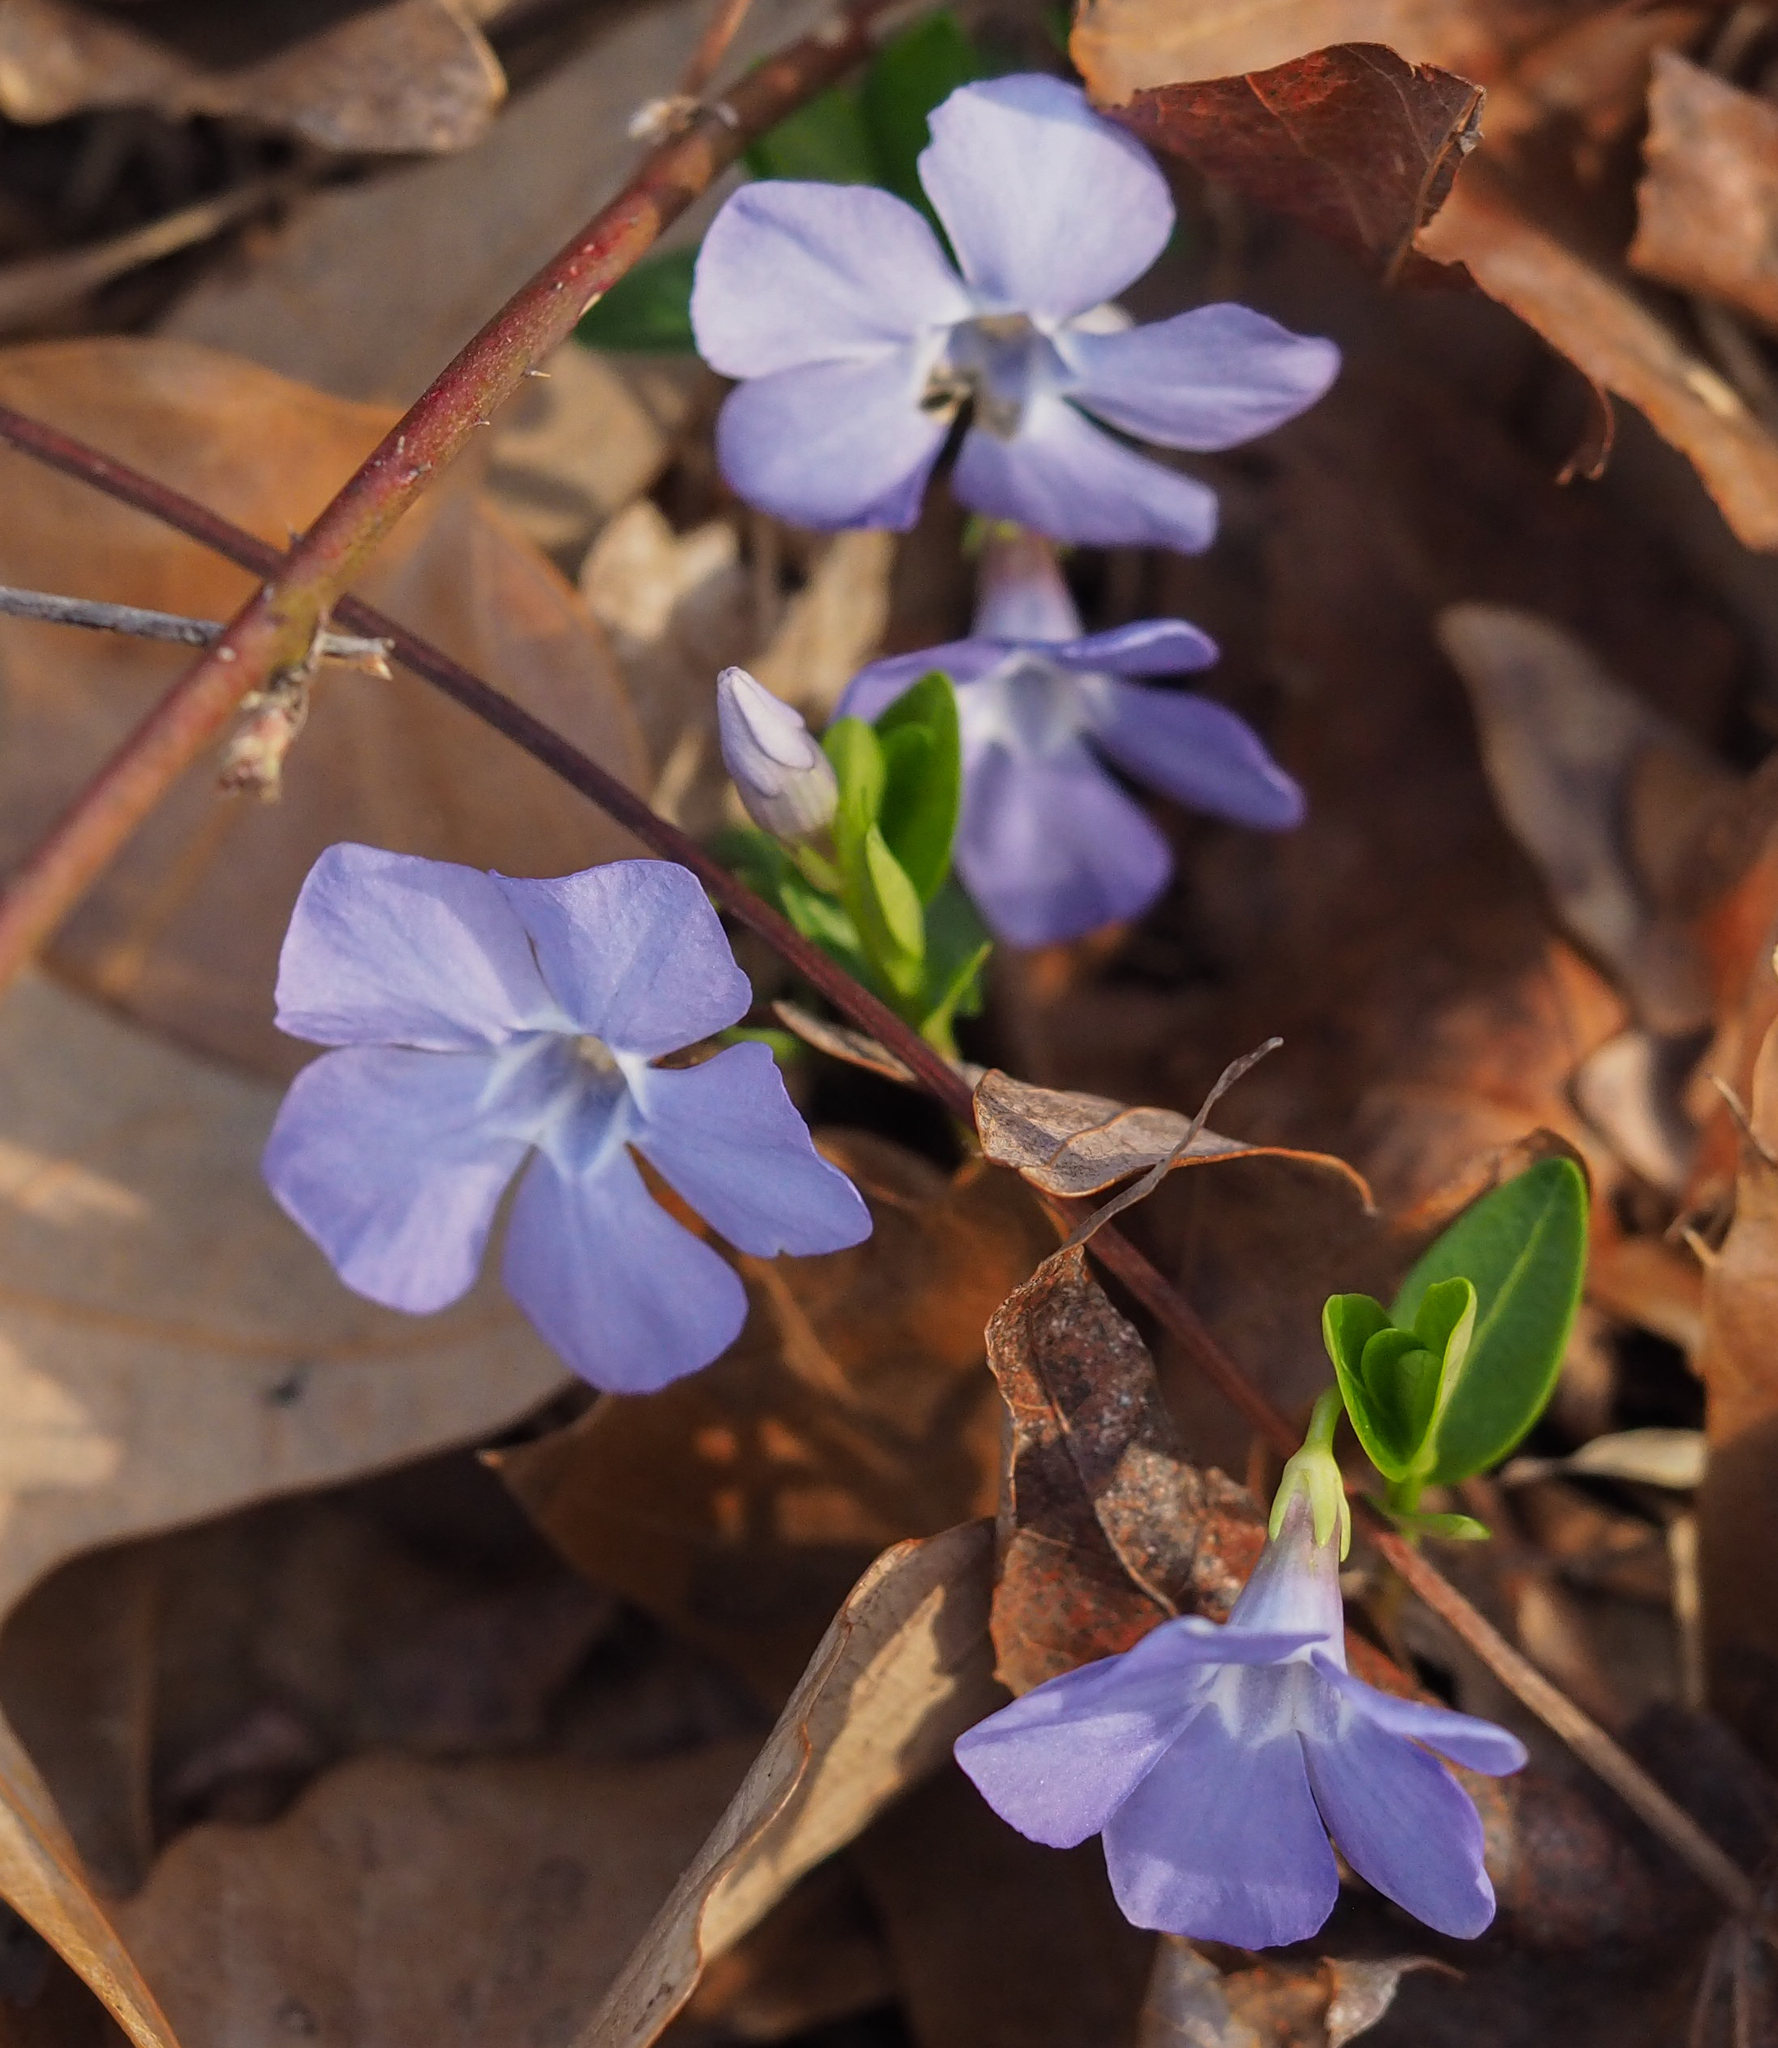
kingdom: Plantae
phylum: Tracheophyta
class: Magnoliopsida
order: Gentianales
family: Apocynaceae
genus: Vinca
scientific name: Vinca minor
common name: Lesser periwinkle
